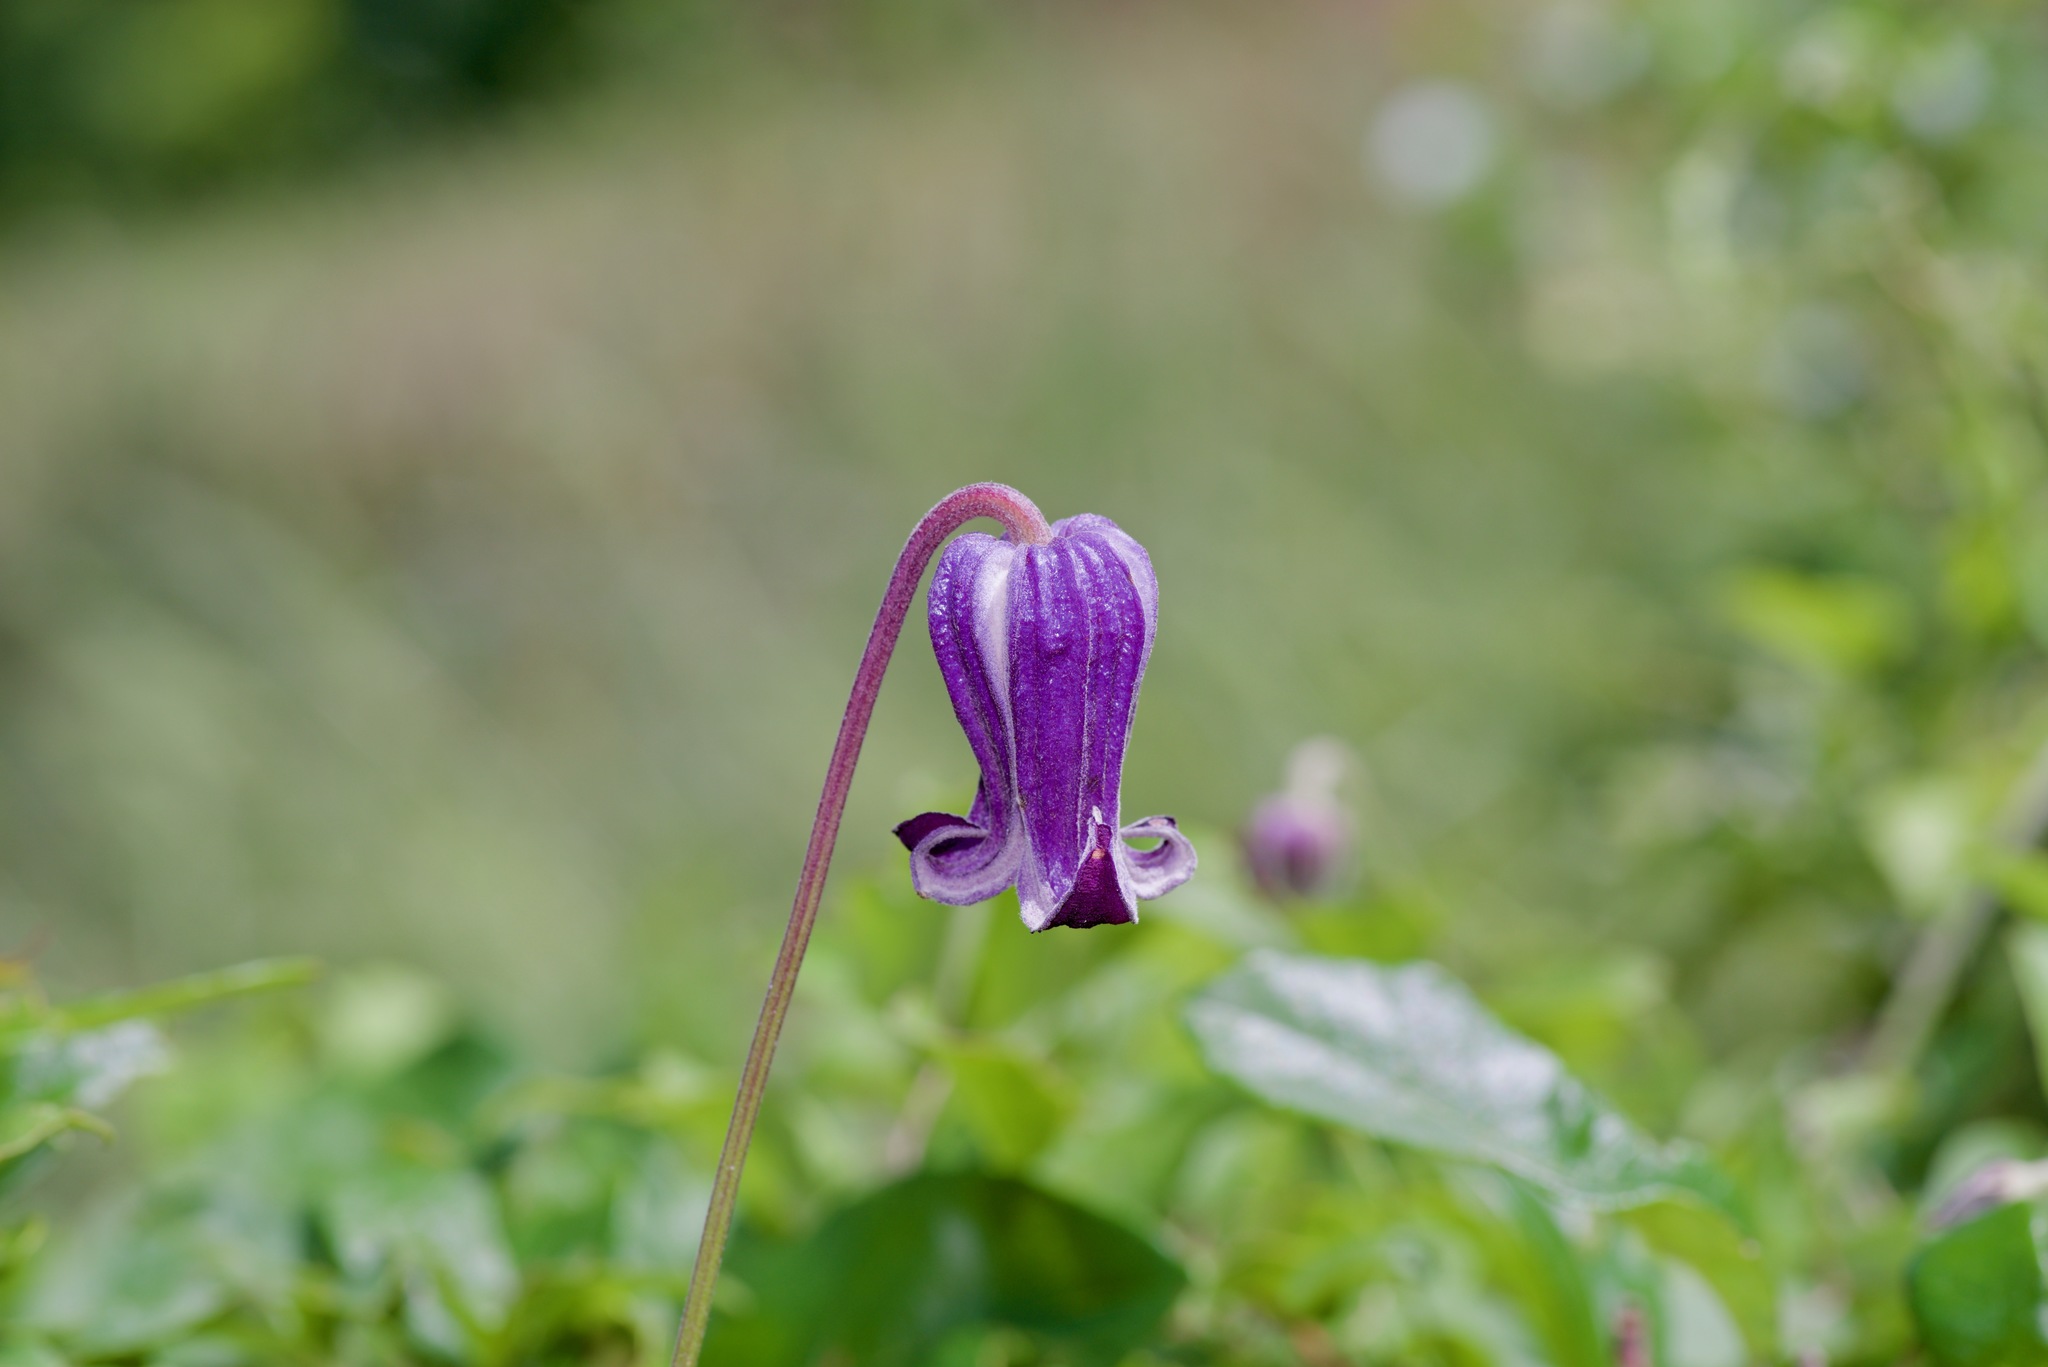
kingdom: Plantae
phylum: Tracheophyta
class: Magnoliopsida
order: Ranunculales
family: Ranunculaceae
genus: Clematis
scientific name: Clematis pitcheri
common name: Bellflower clematis
